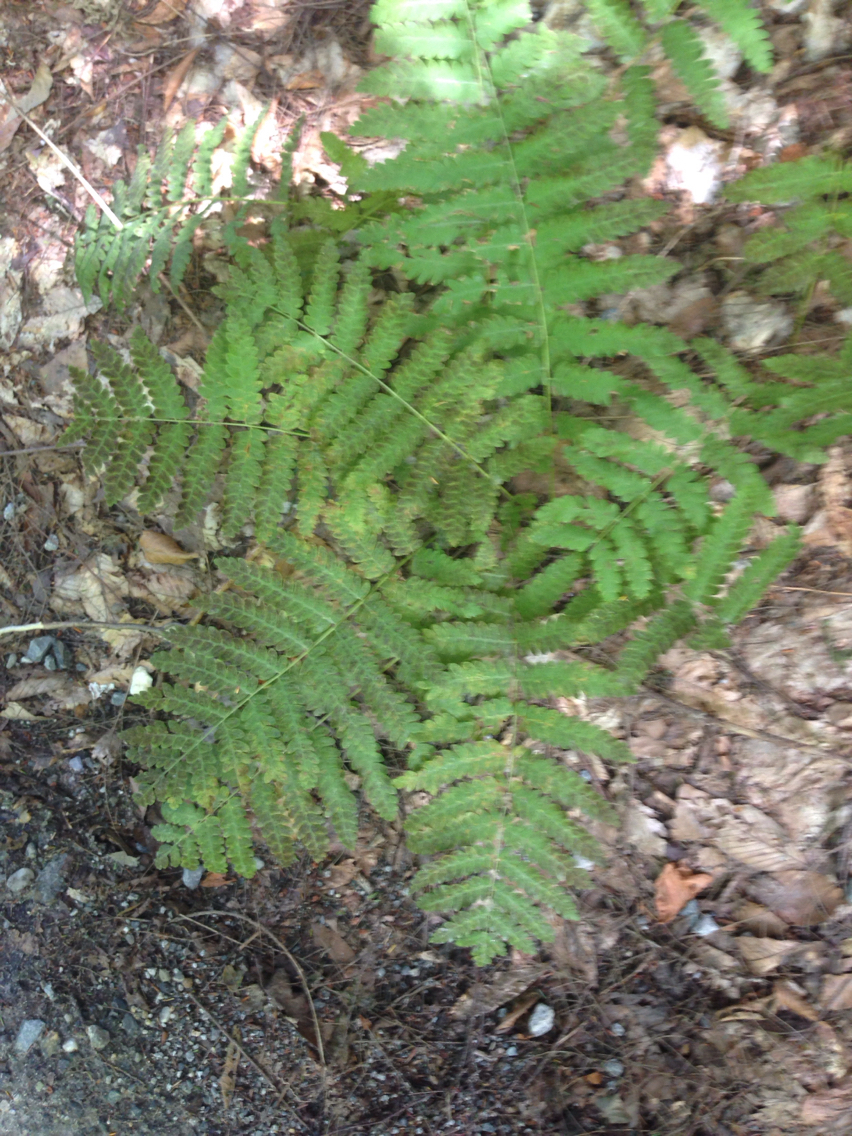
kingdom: Plantae
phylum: Tracheophyta
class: Polypodiopsida
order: Osmundales
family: Osmundaceae
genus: Claytosmunda
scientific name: Claytosmunda claytoniana
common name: Clayton's fern
